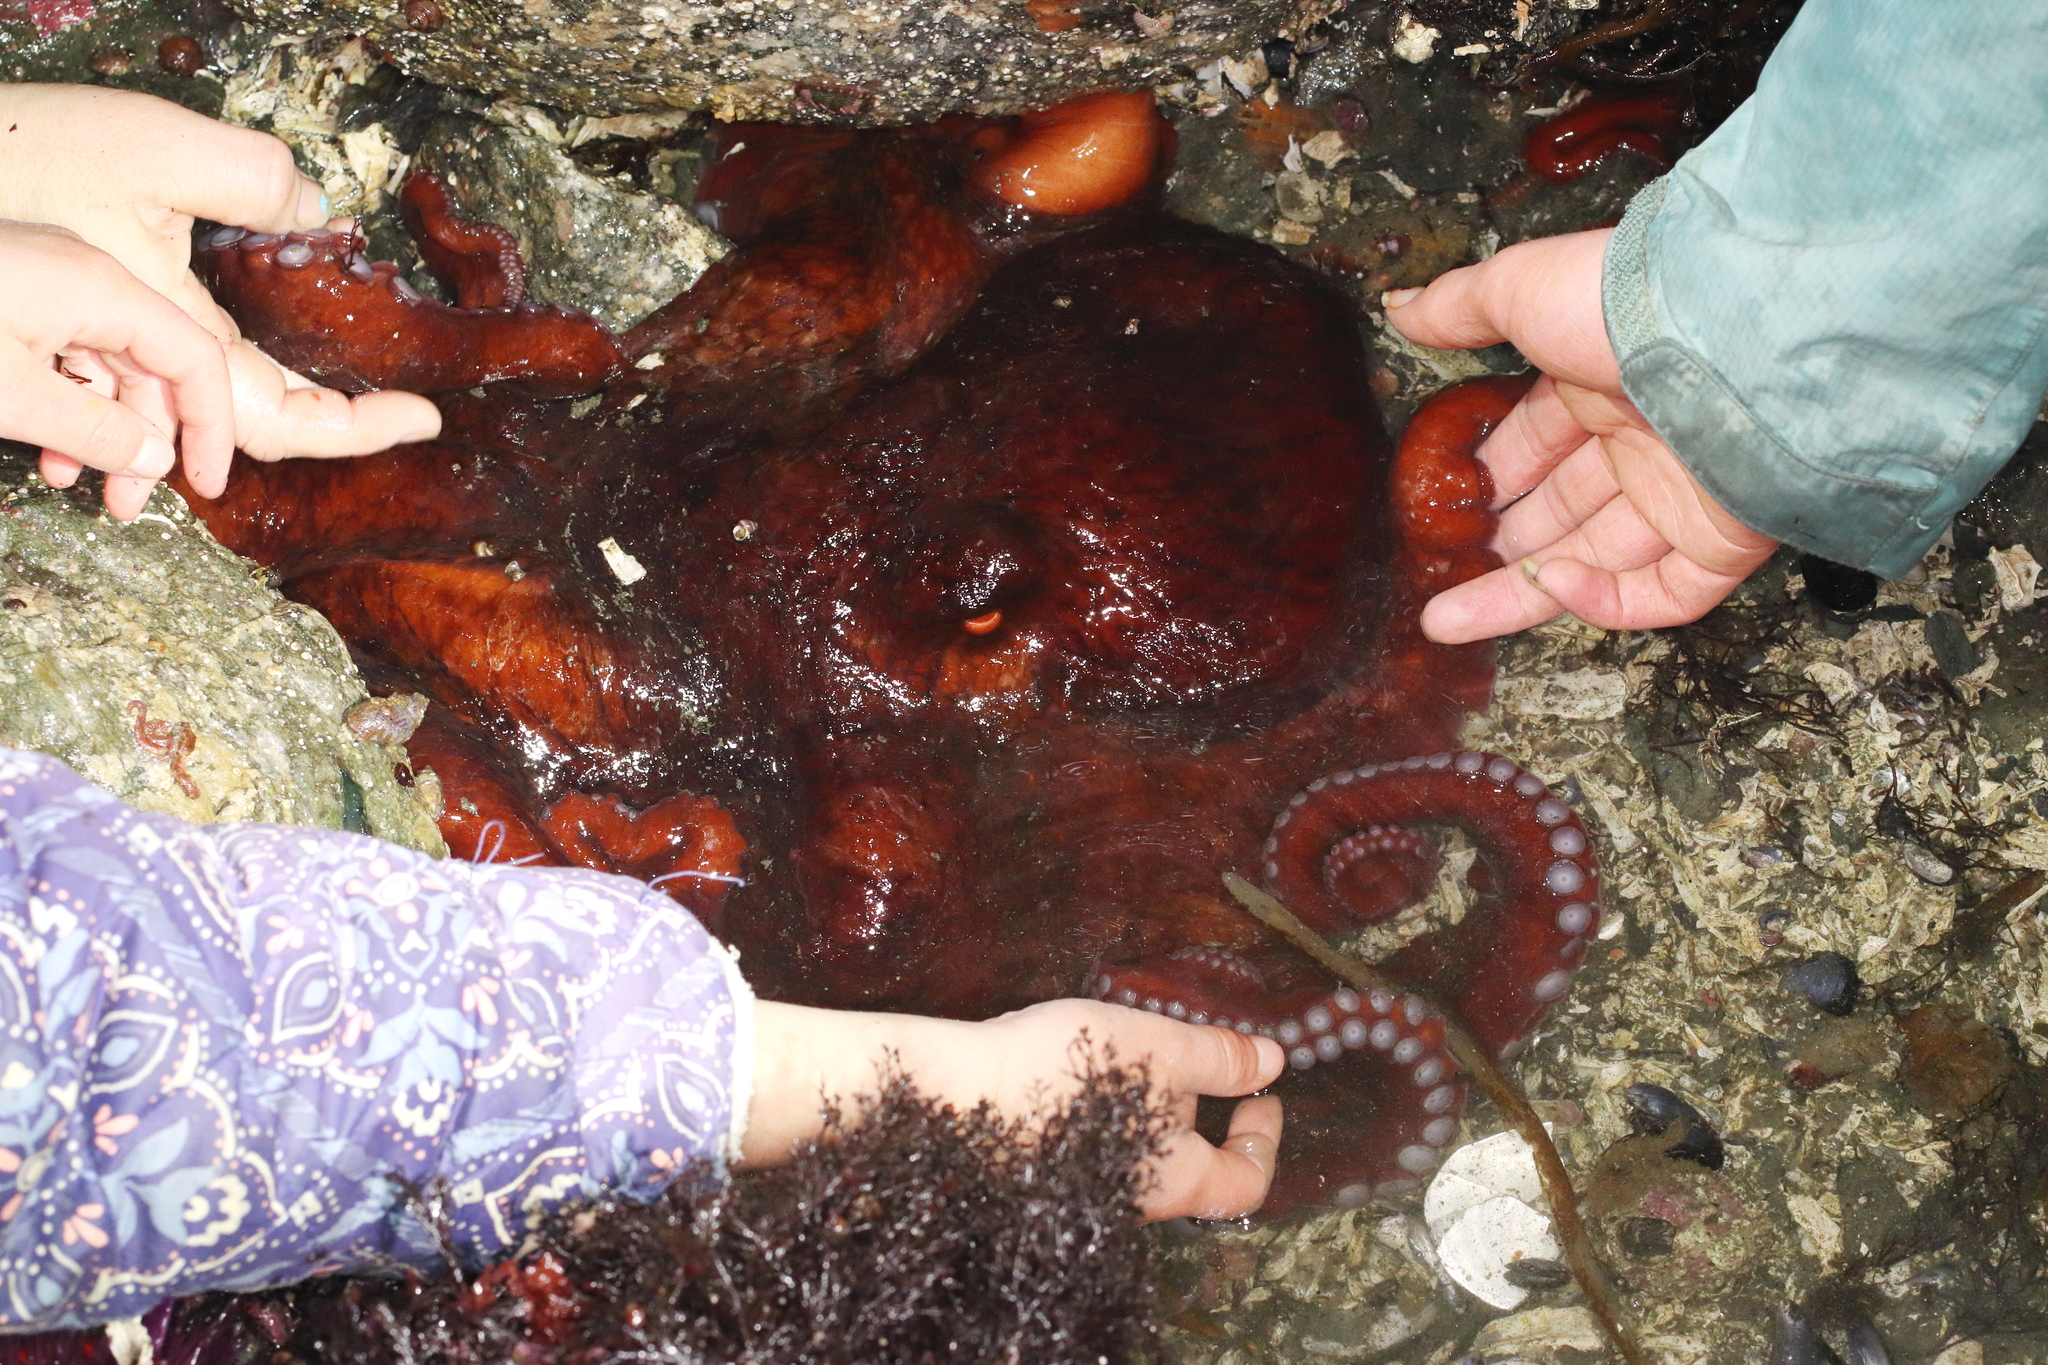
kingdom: Animalia
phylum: Mollusca
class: Cephalopoda
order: Octopoda
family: Enteroctopodidae
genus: Enteroctopus
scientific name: Enteroctopus dofleini
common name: Giant north pacific octopus
